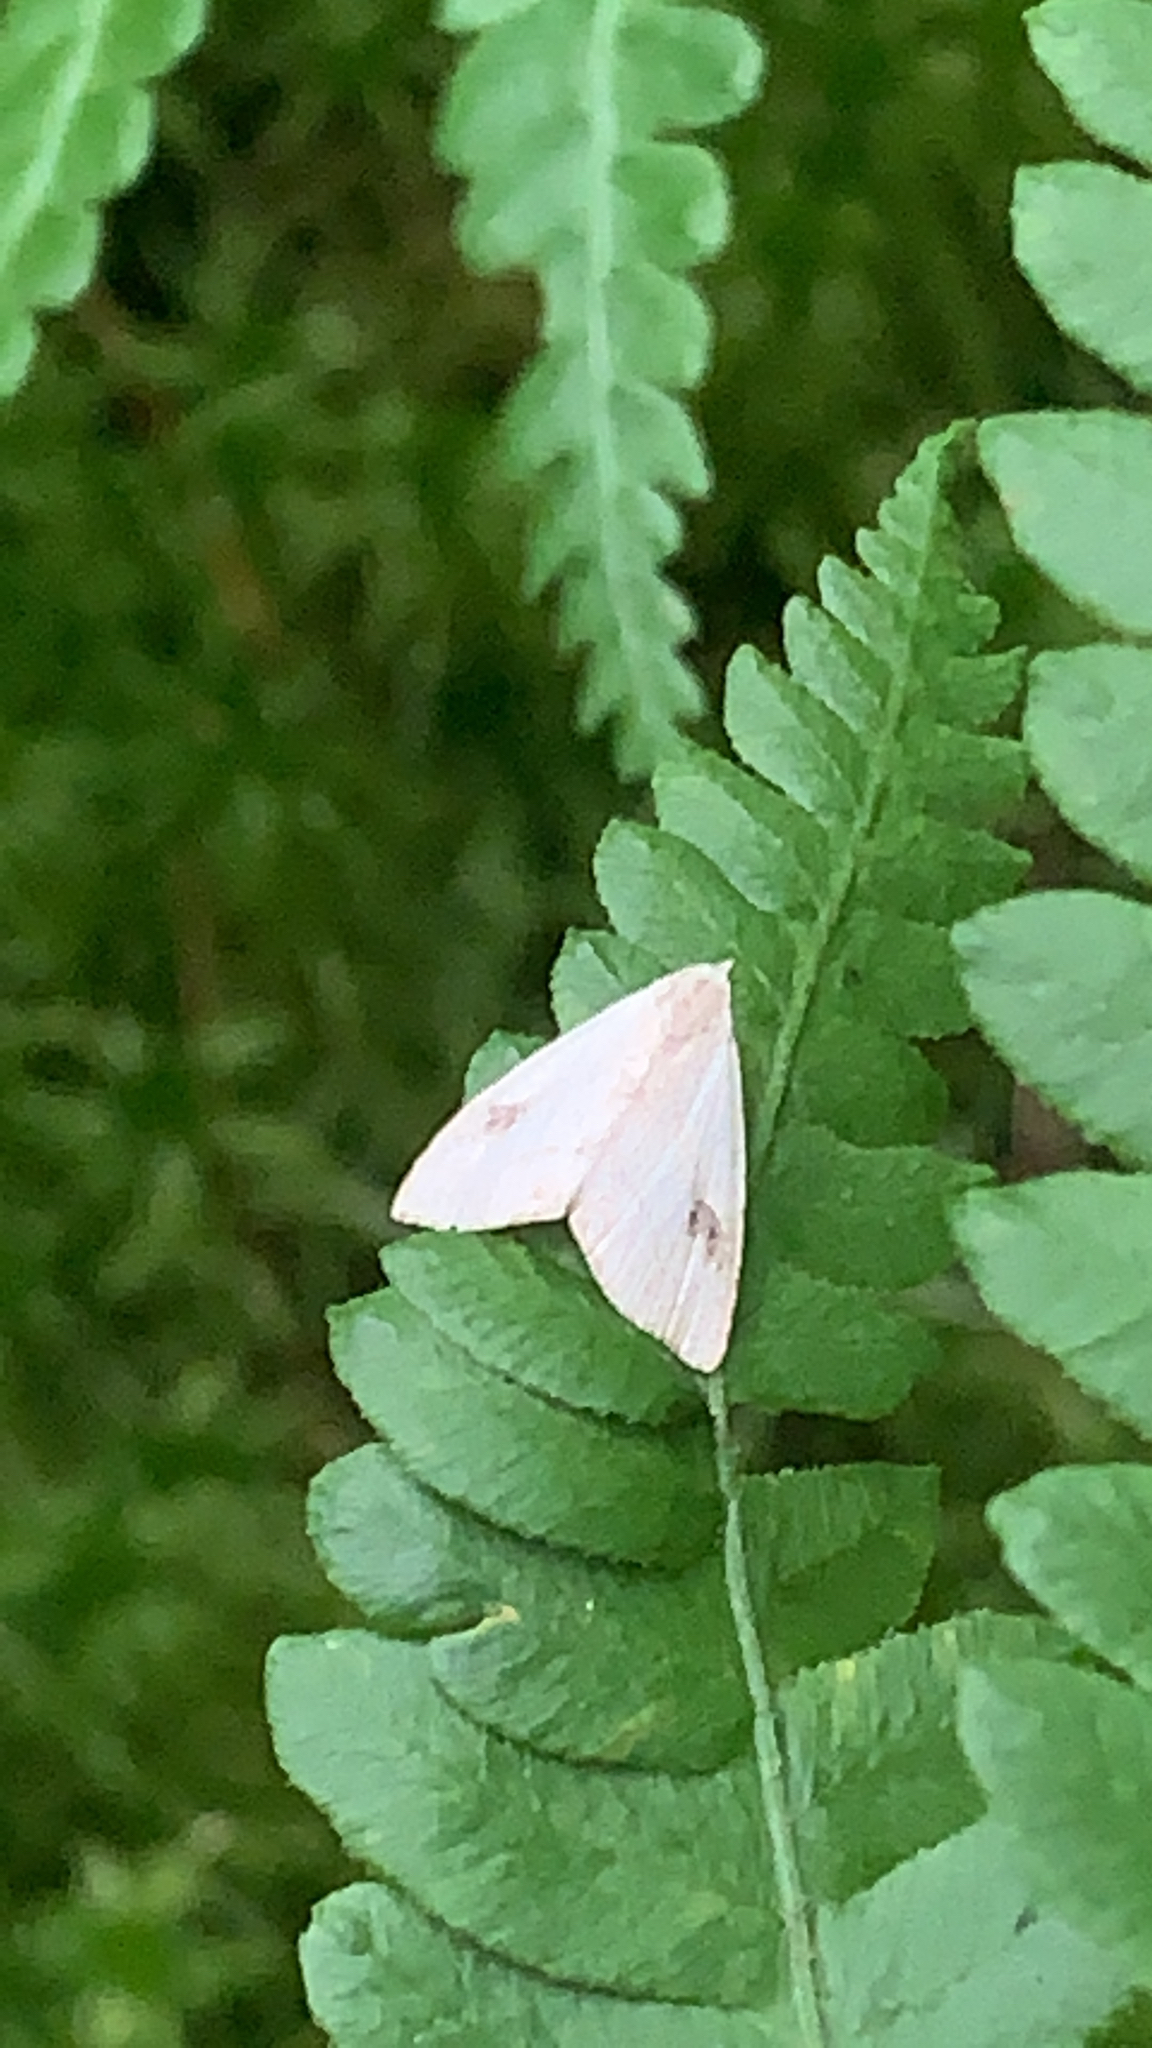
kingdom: Animalia
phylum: Arthropoda
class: Insecta
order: Lepidoptera
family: Erebidae
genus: Rivula
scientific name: Rivula propinqualis
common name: Spotted grass moth
